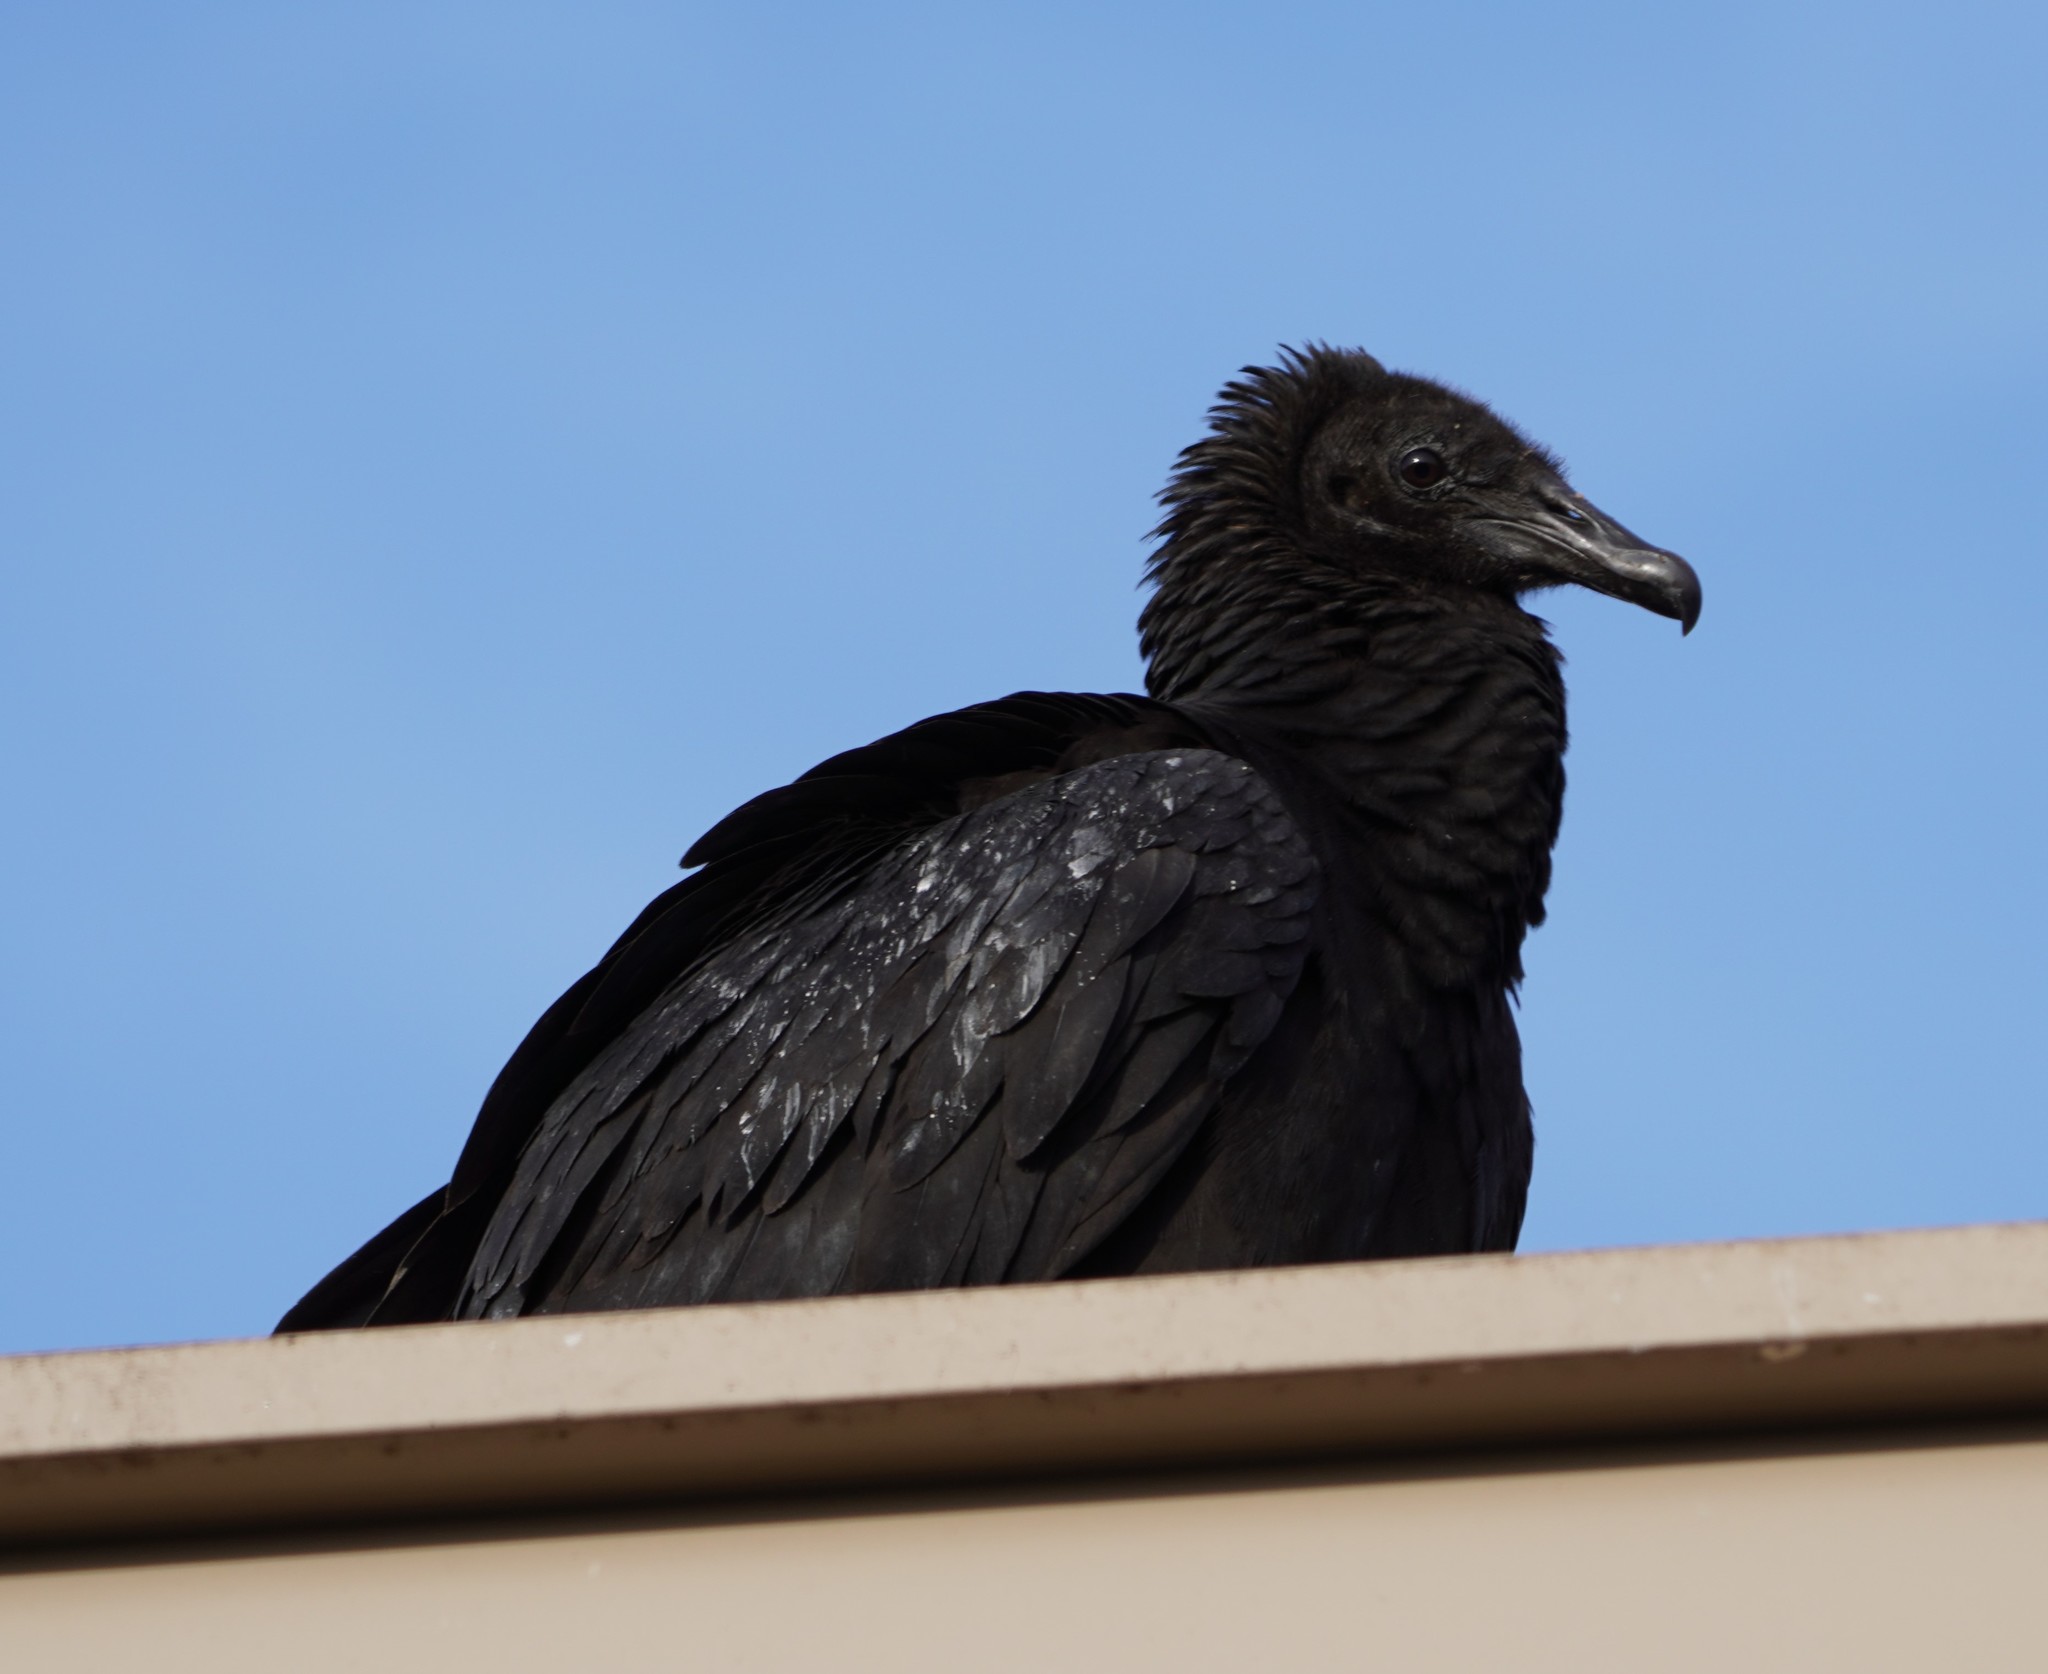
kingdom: Animalia
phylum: Chordata
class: Aves
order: Accipitriformes
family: Cathartidae
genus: Coragyps
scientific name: Coragyps atratus
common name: Black vulture
